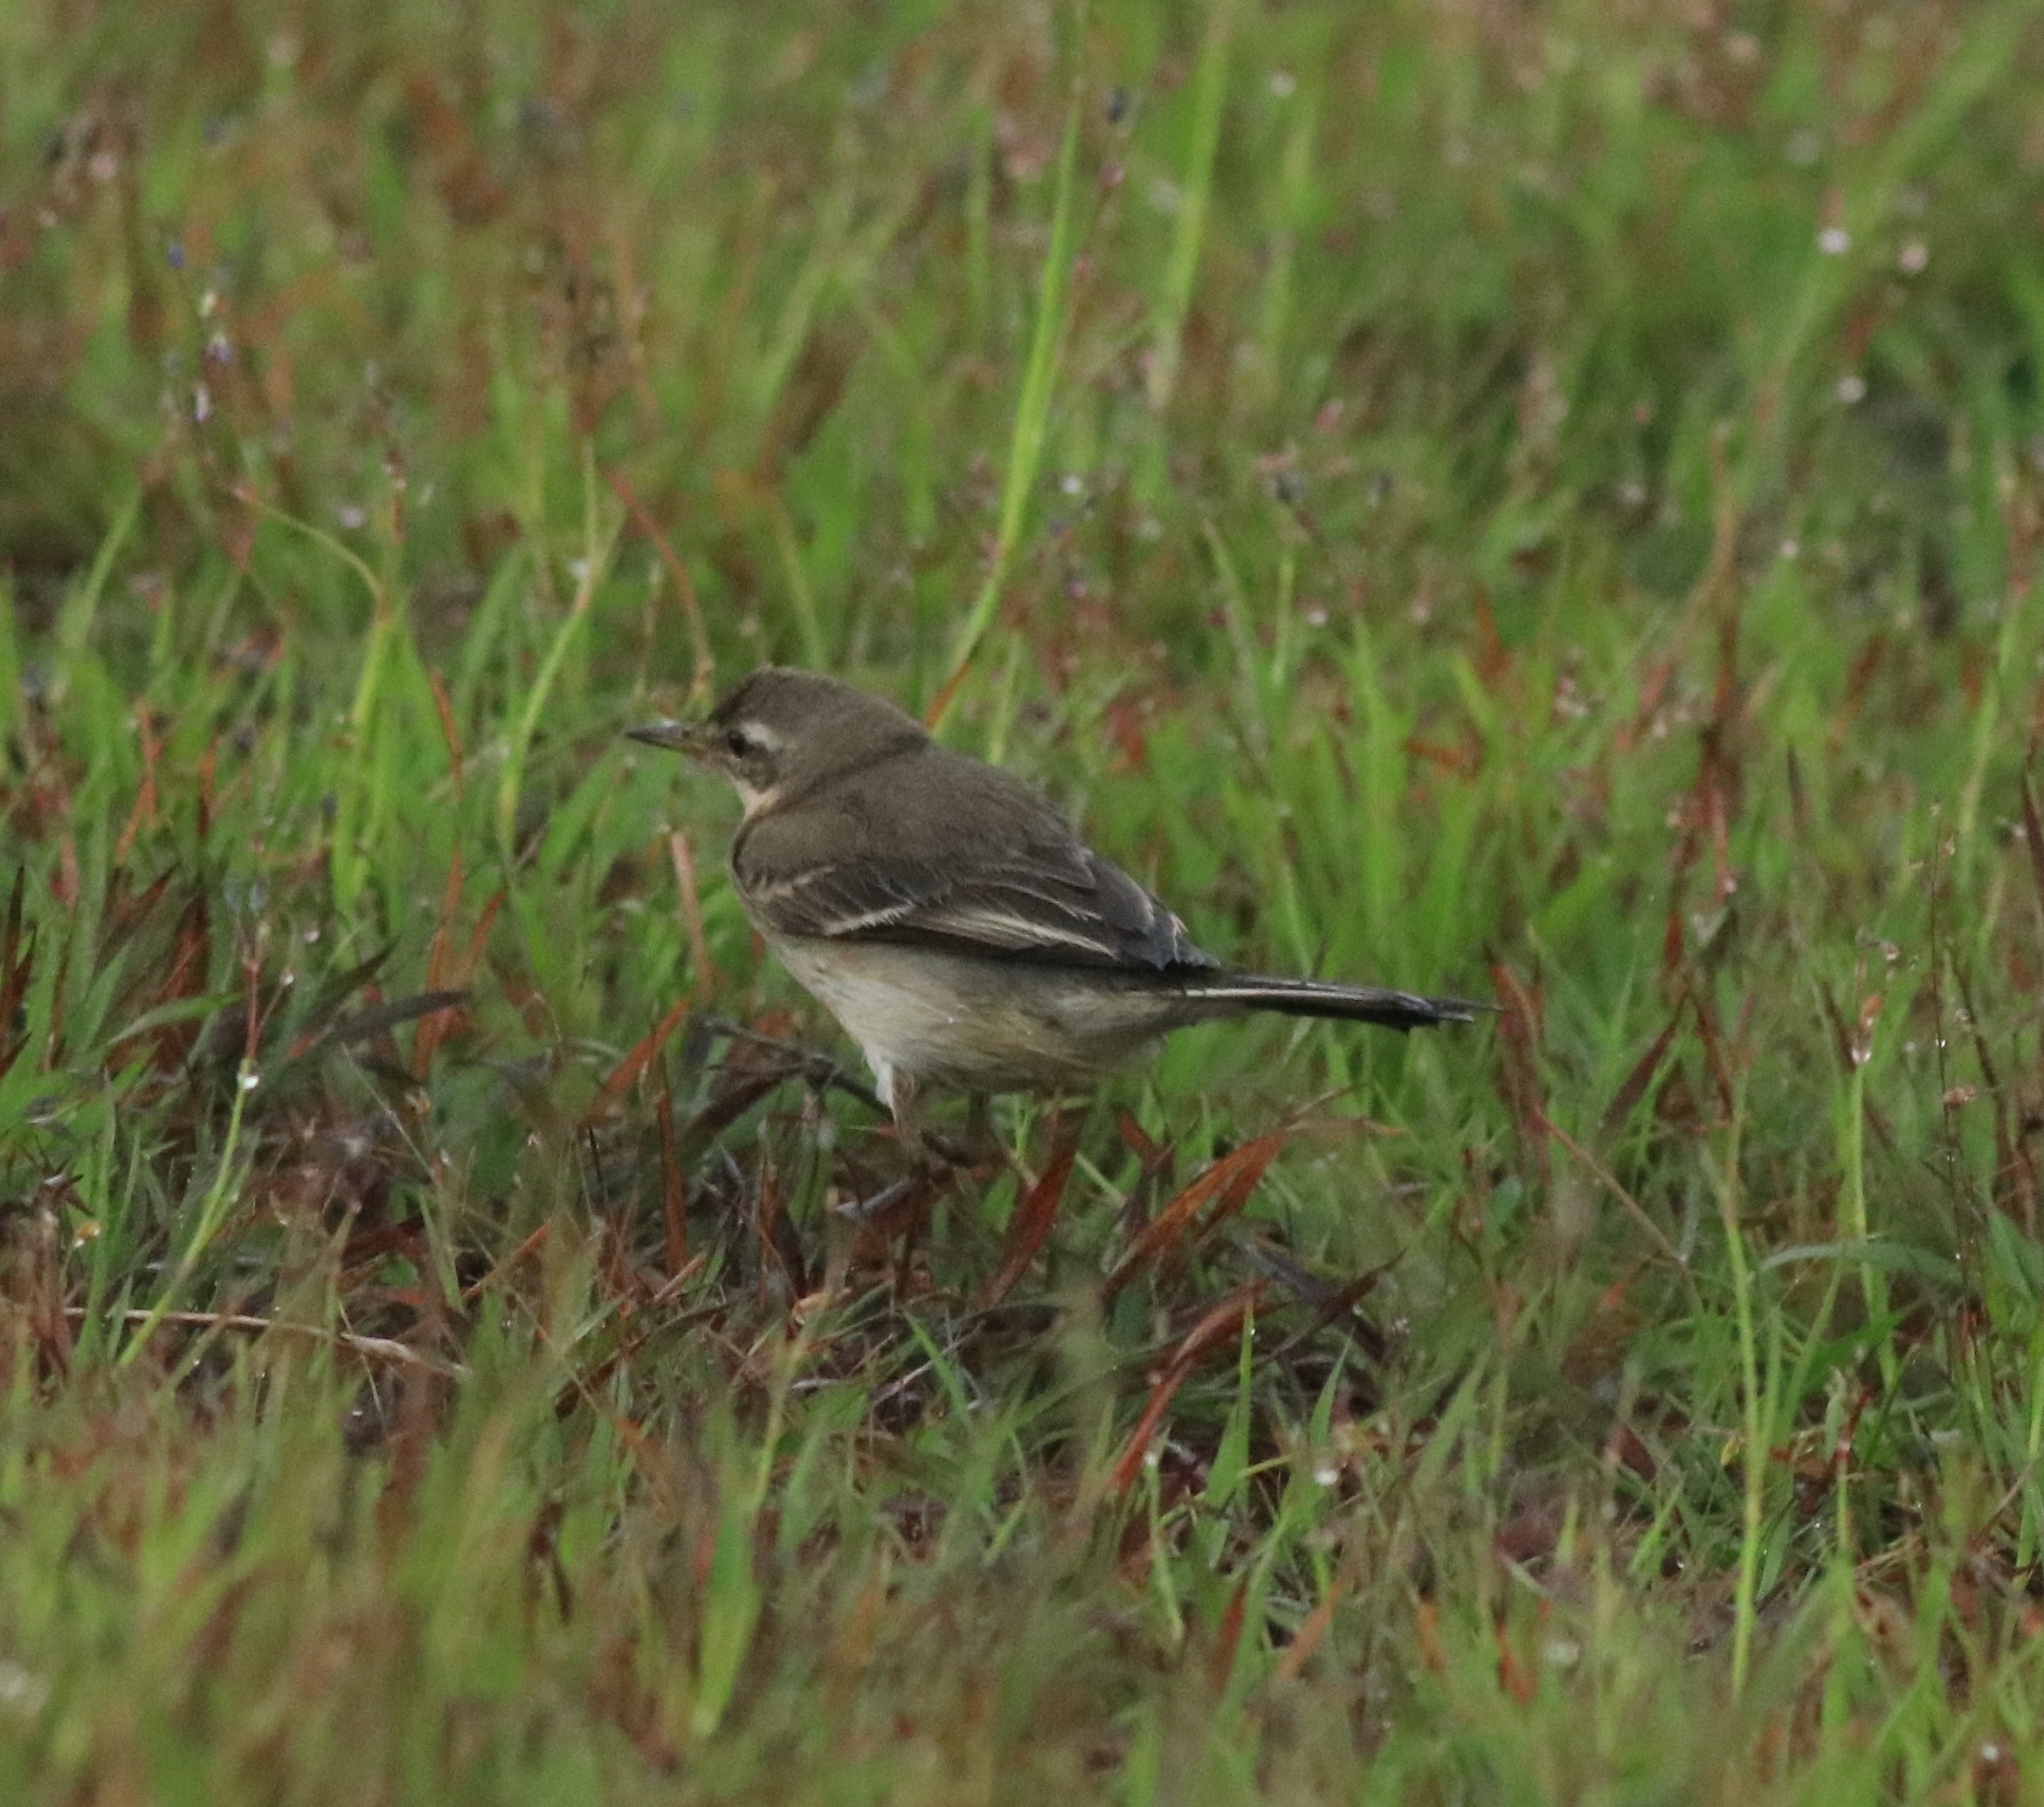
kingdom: Animalia
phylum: Chordata
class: Aves
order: Passeriformes
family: Motacillidae
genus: Motacilla
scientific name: Motacilla flava
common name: Western yellow wagtail
